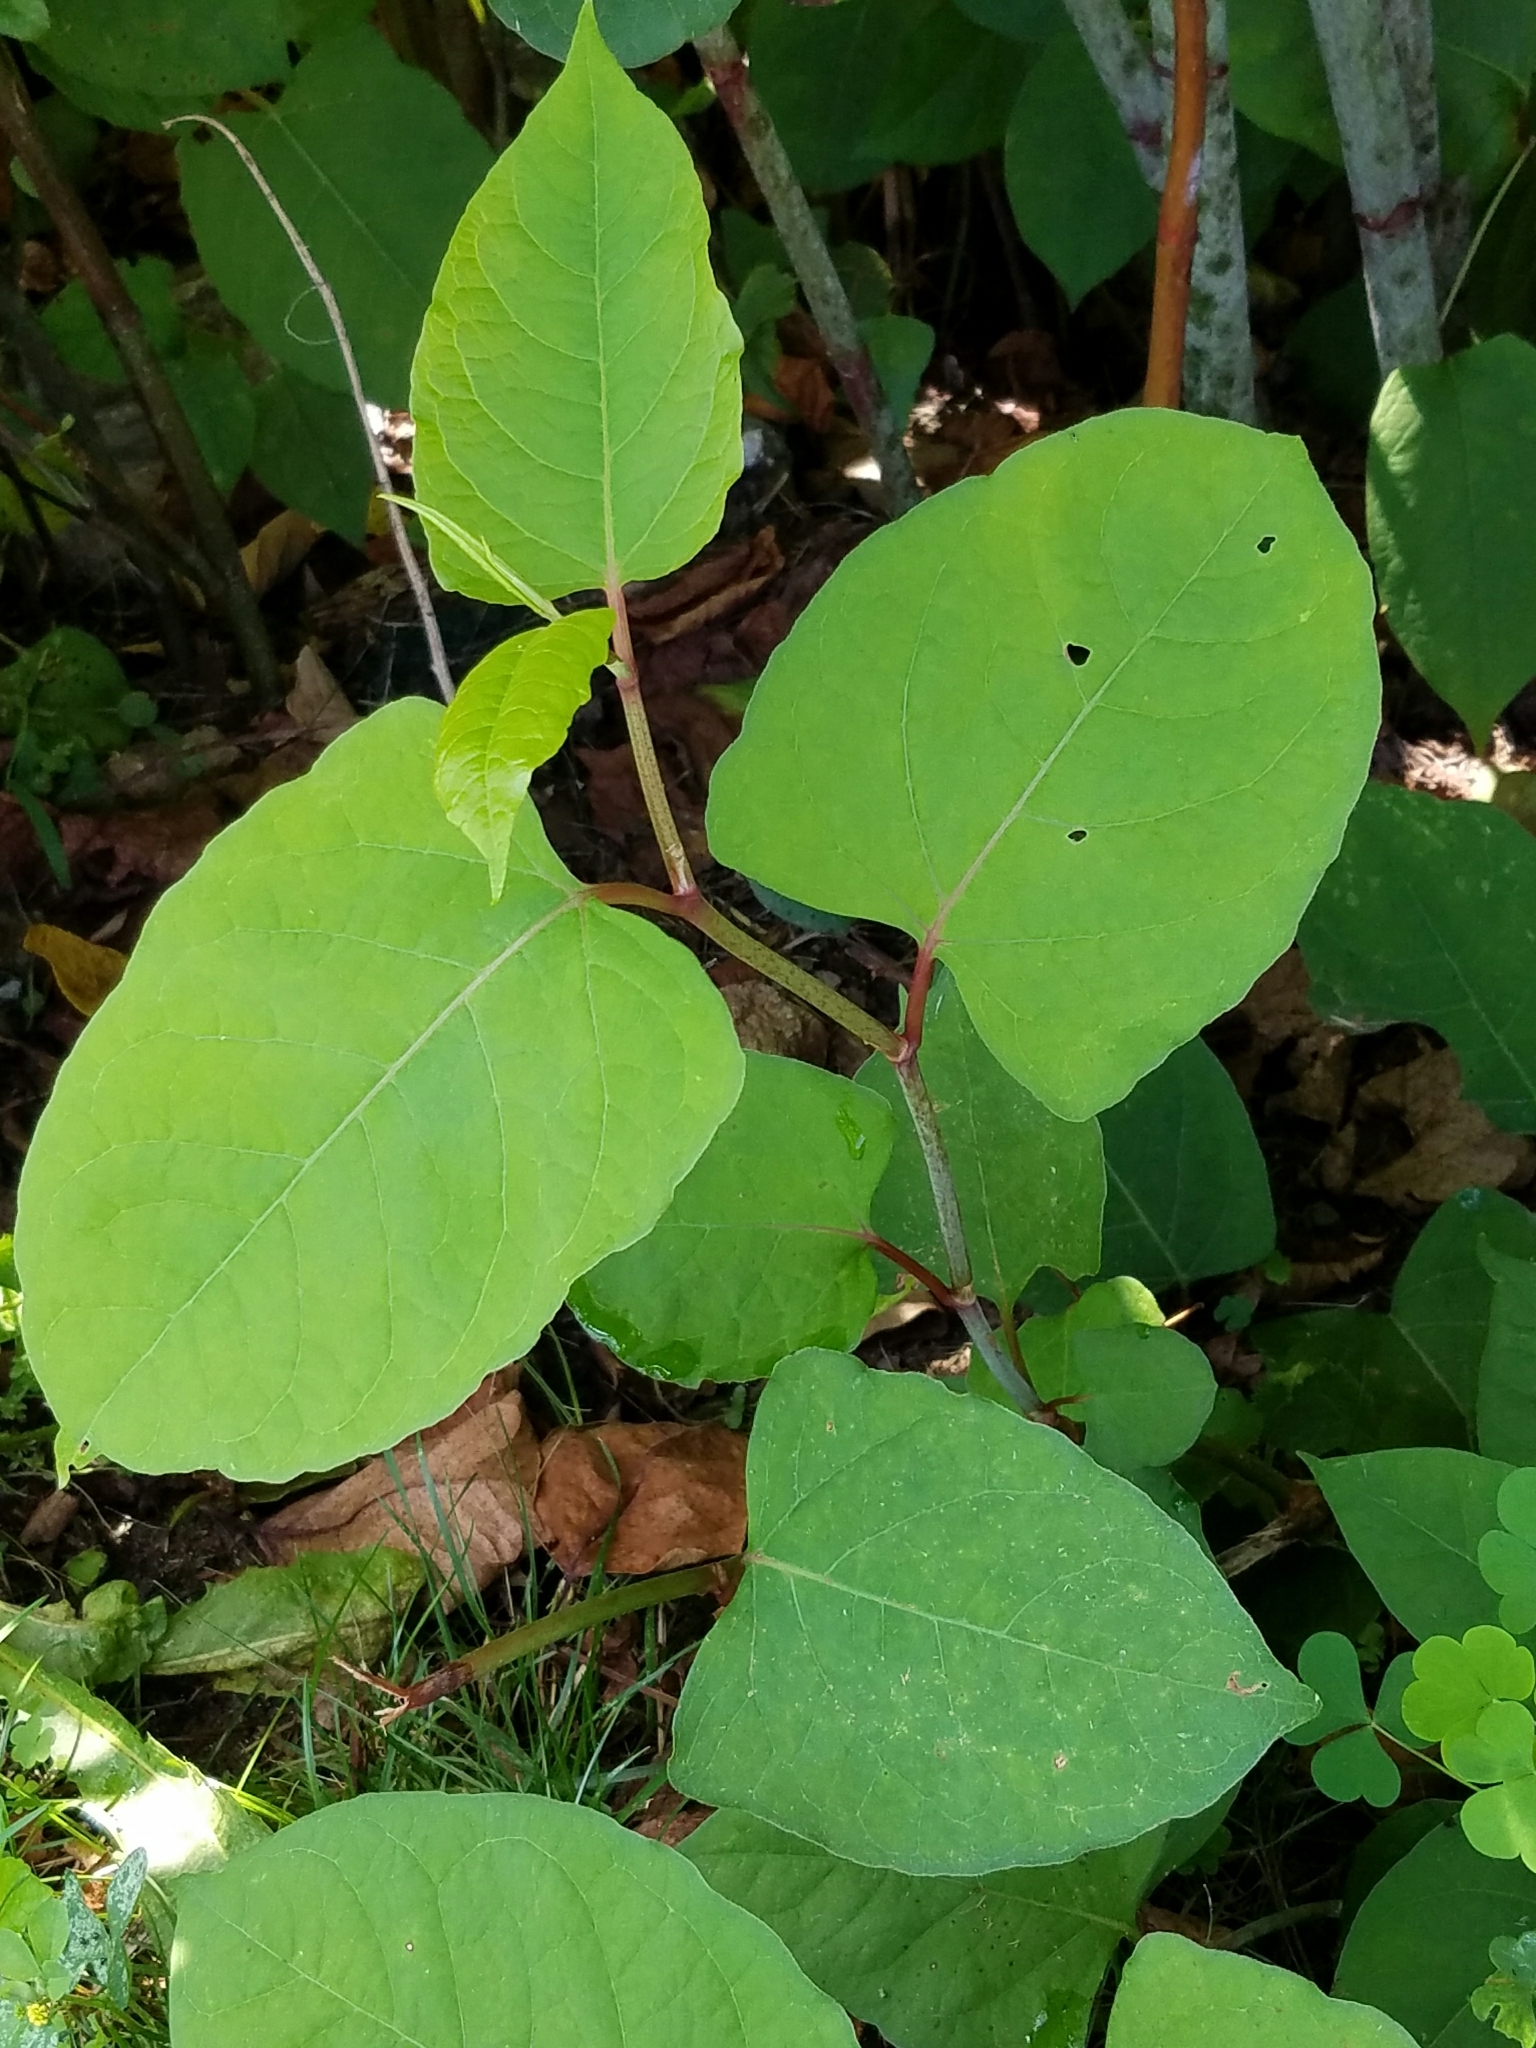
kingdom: Plantae
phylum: Tracheophyta
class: Magnoliopsida
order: Caryophyllales
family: Polygonaceae
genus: Reynoutria
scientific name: Reynoutria japonica
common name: Japanese knotweed
